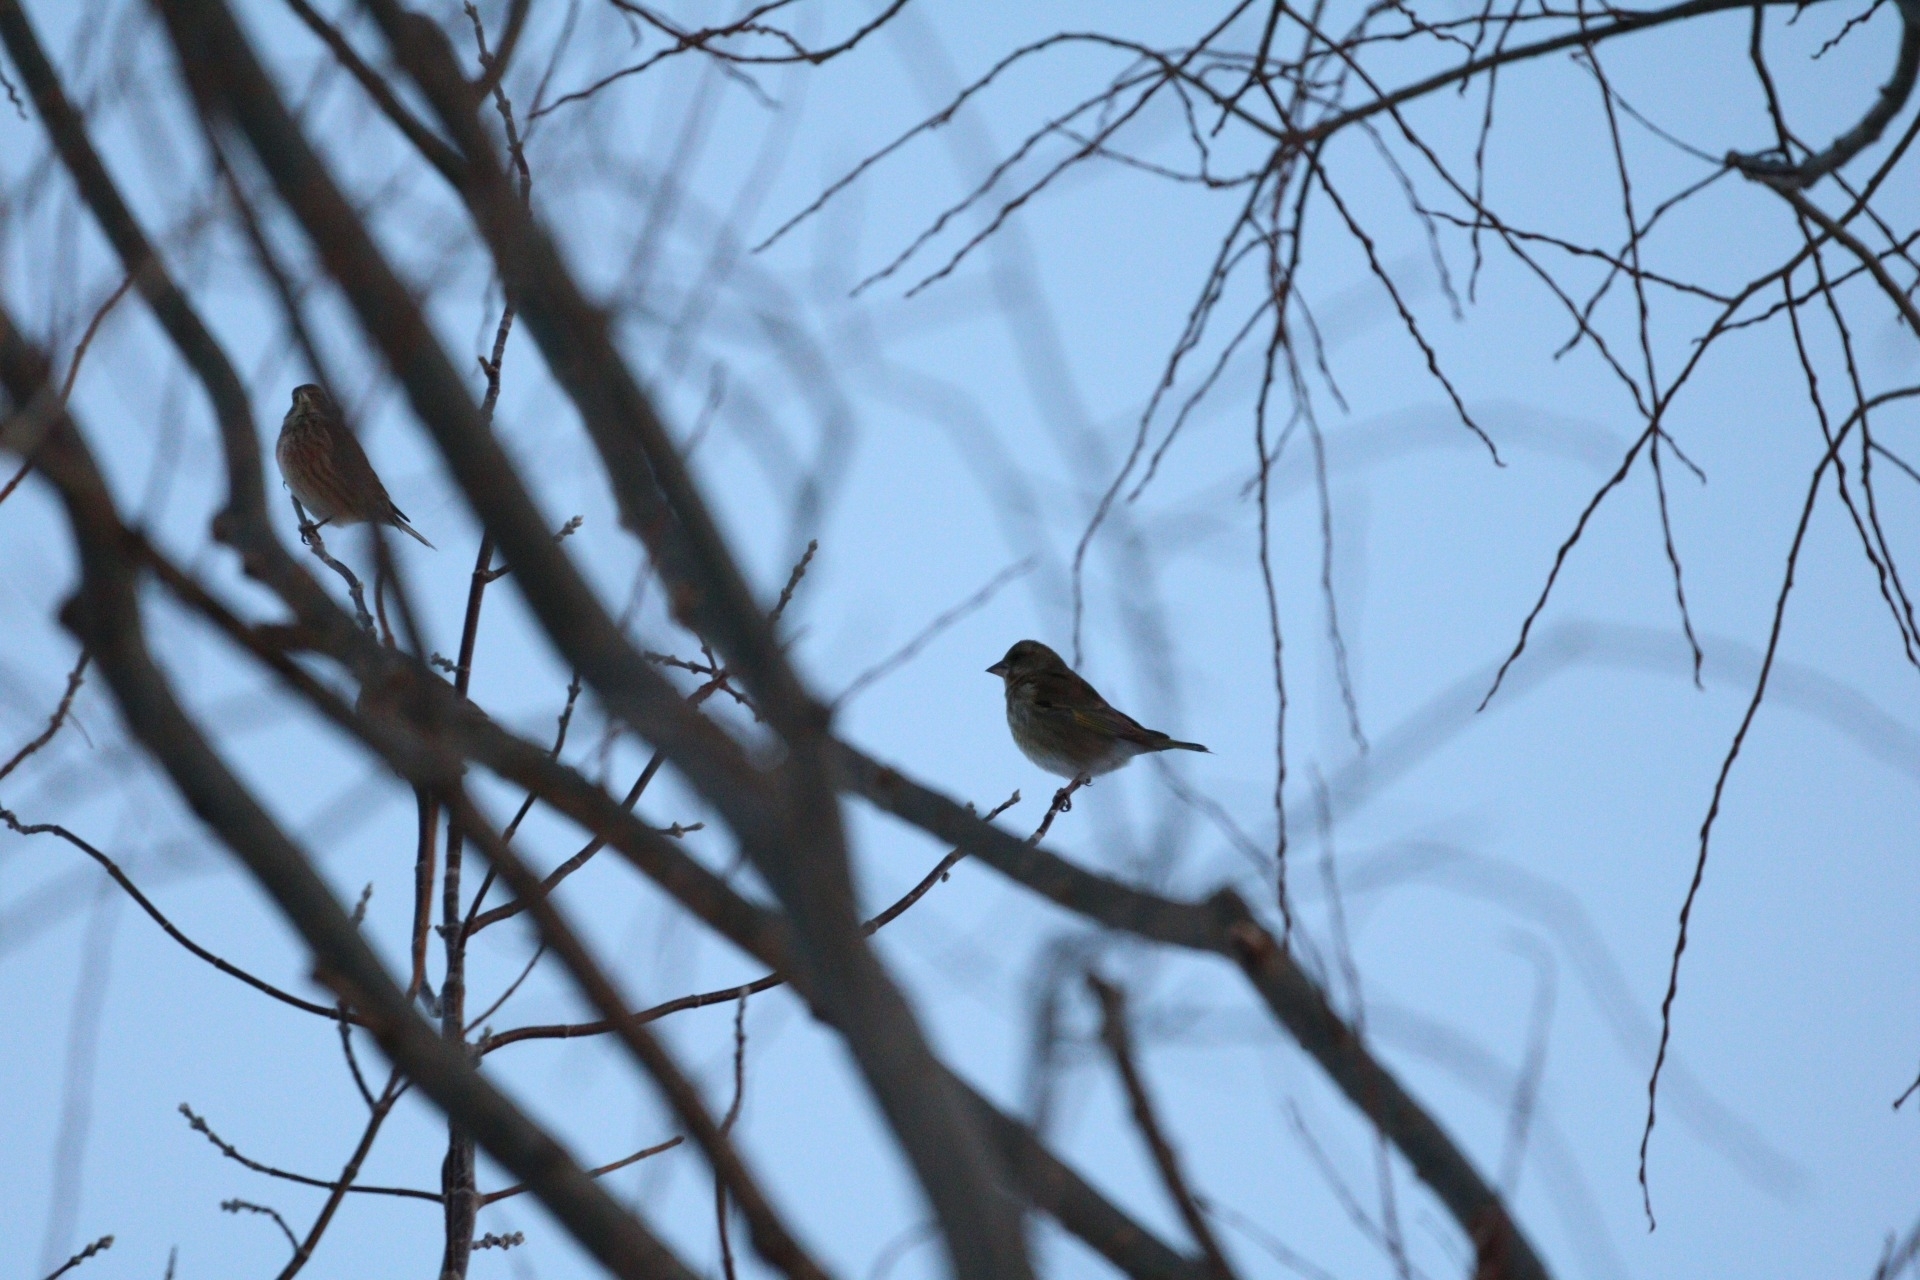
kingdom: Plantae
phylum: Tracheophyta
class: Liliopsida
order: Poales
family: Poaceae
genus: Chloris
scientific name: Chloris chloris
